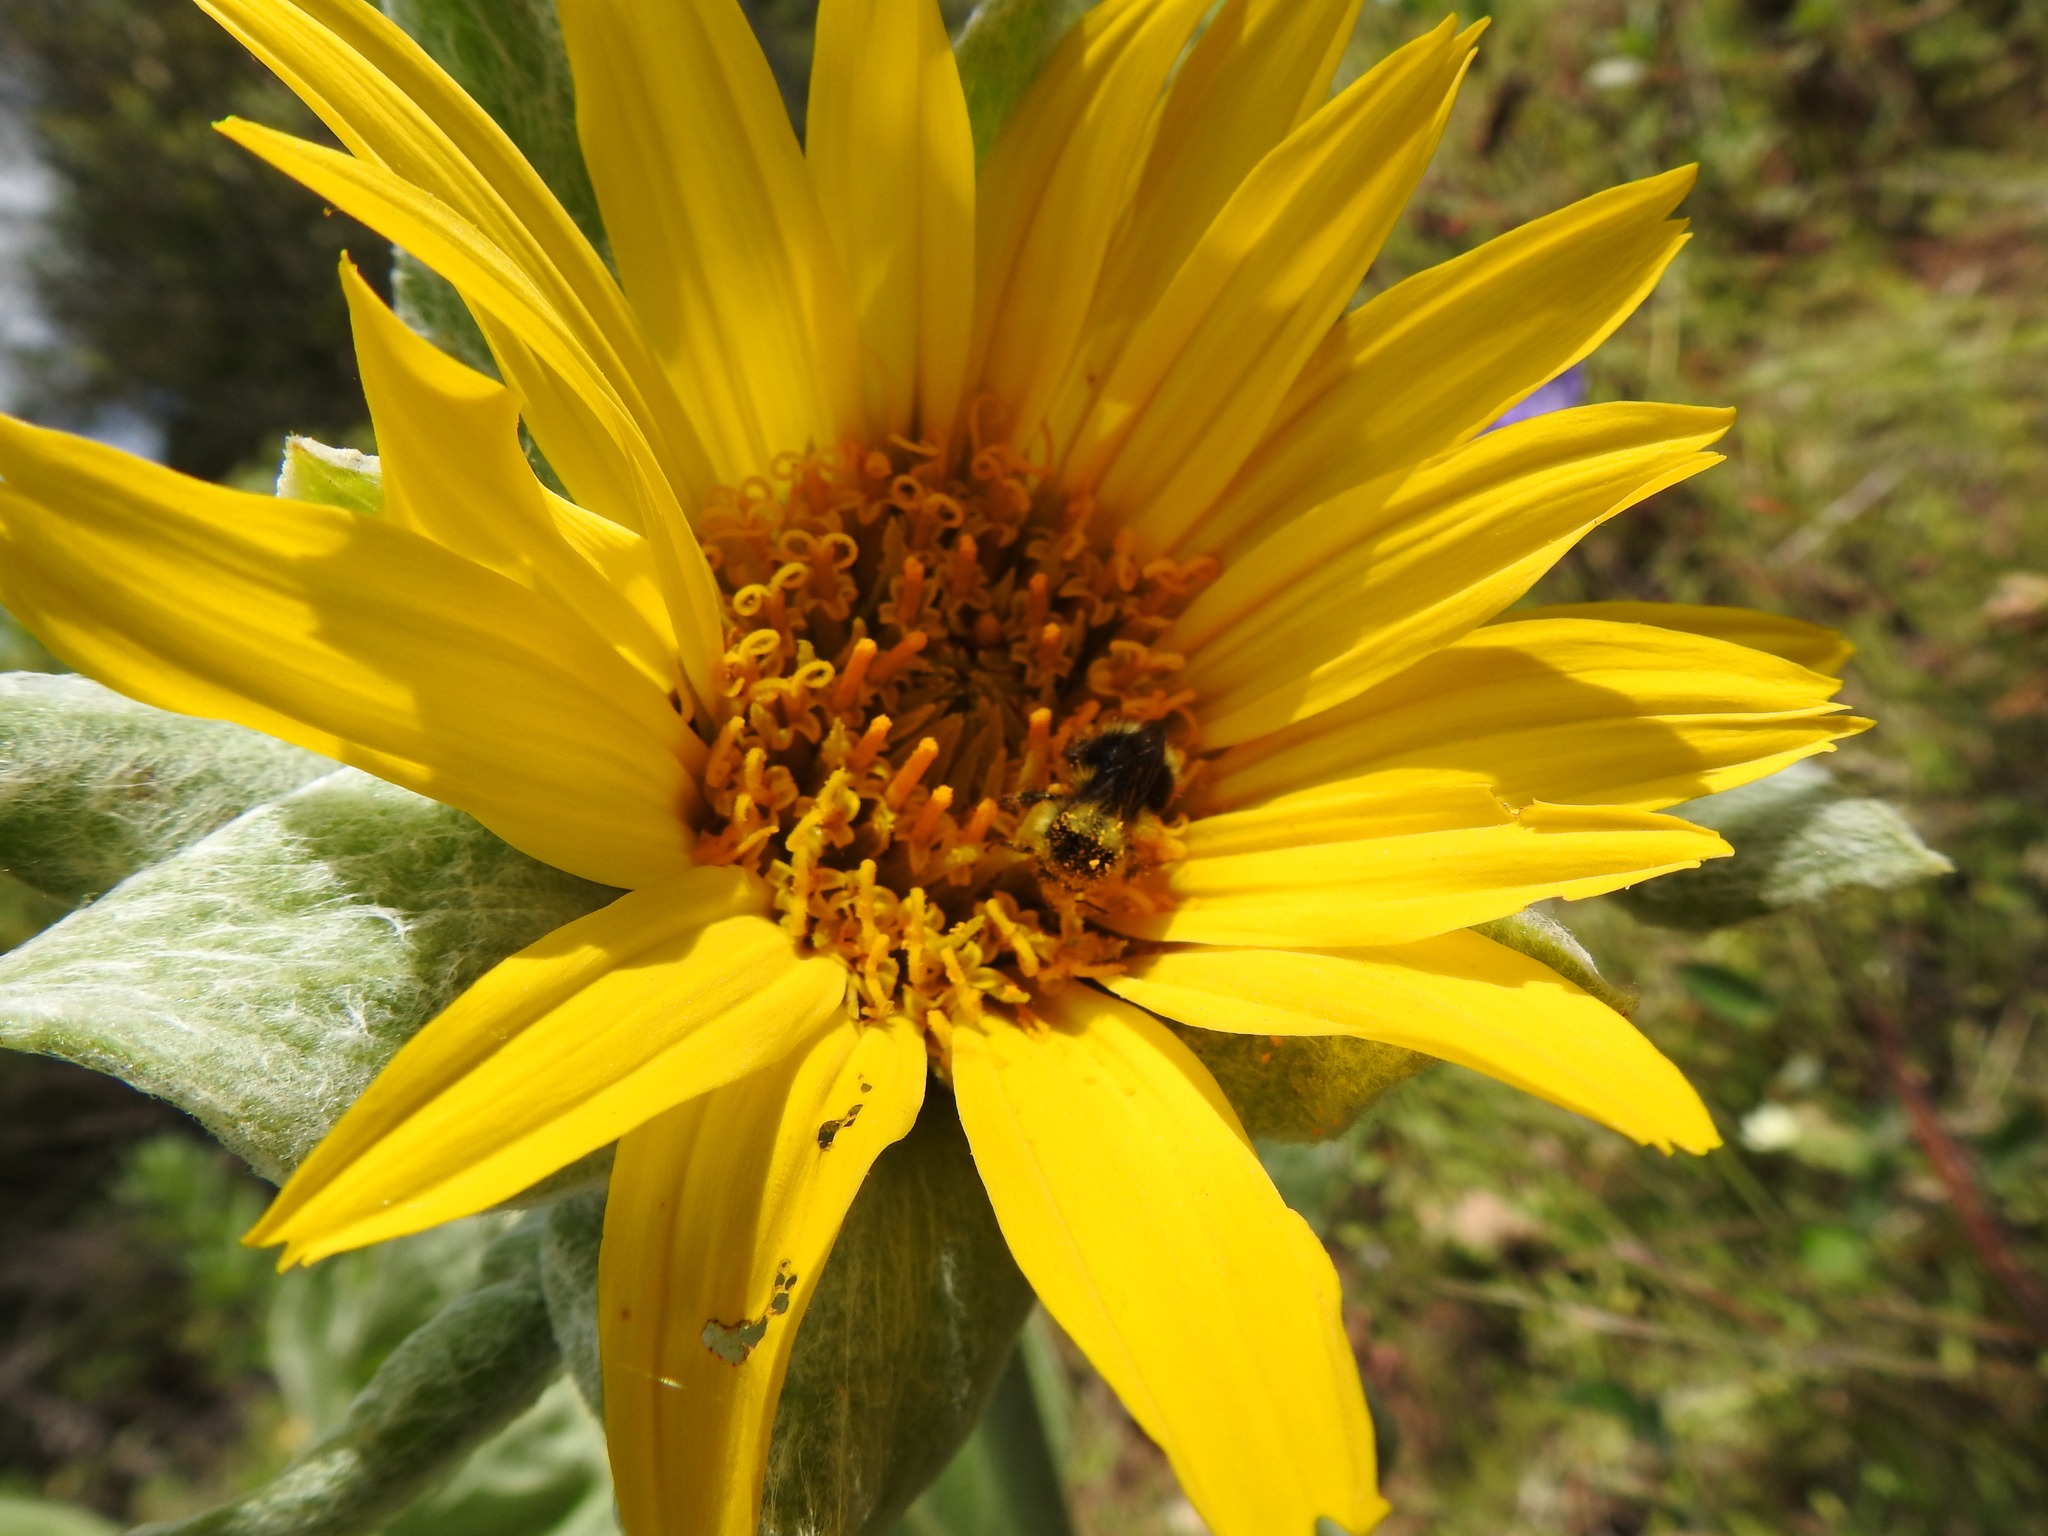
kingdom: Animalia
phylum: Arthropoda
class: Insecta
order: Hymenoptera
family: Apidae
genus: Bombus
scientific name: Bombus melanopygus
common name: Black tail bumble bee
